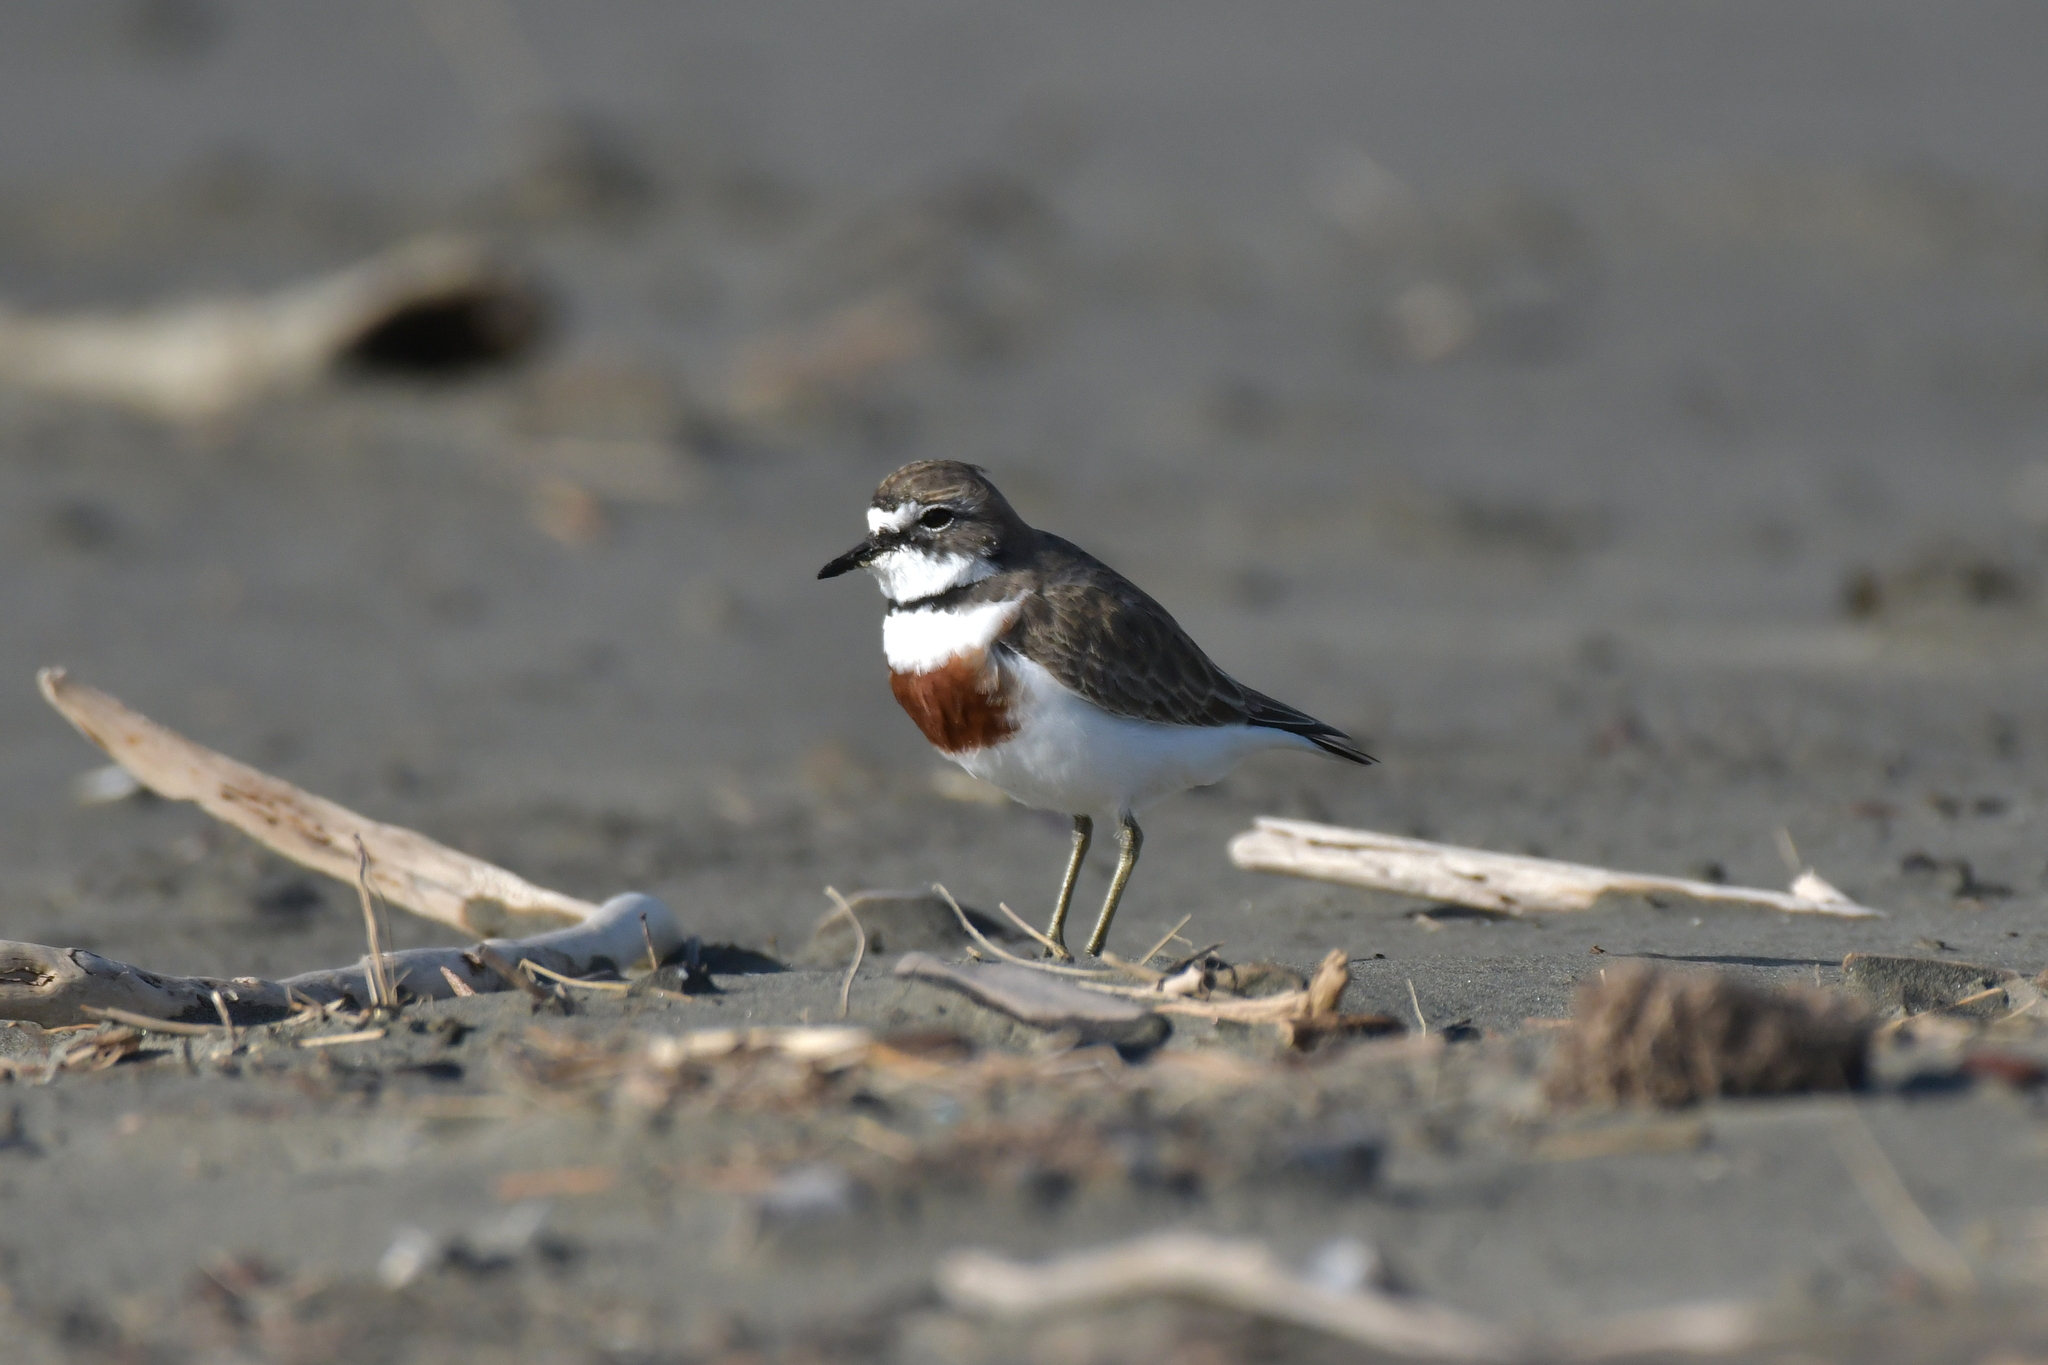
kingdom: Animalia
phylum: Chordata
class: Aves
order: Charadriiformes
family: Charadriidae
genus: Anarhynchus
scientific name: Anarhynchus
